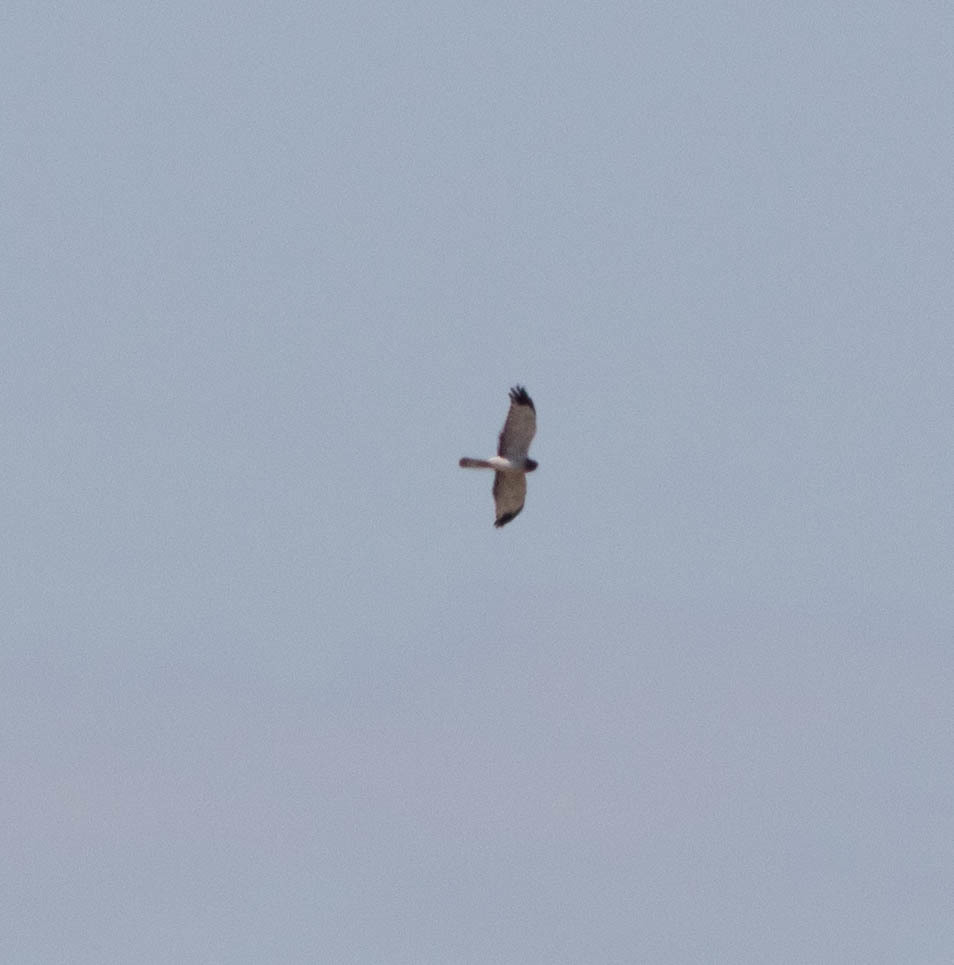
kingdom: Animalia
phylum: Chordata
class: Aves
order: Accipitriformes
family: Accipitridae
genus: Circus
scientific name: Circus cyaneus
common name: Hen harrier
